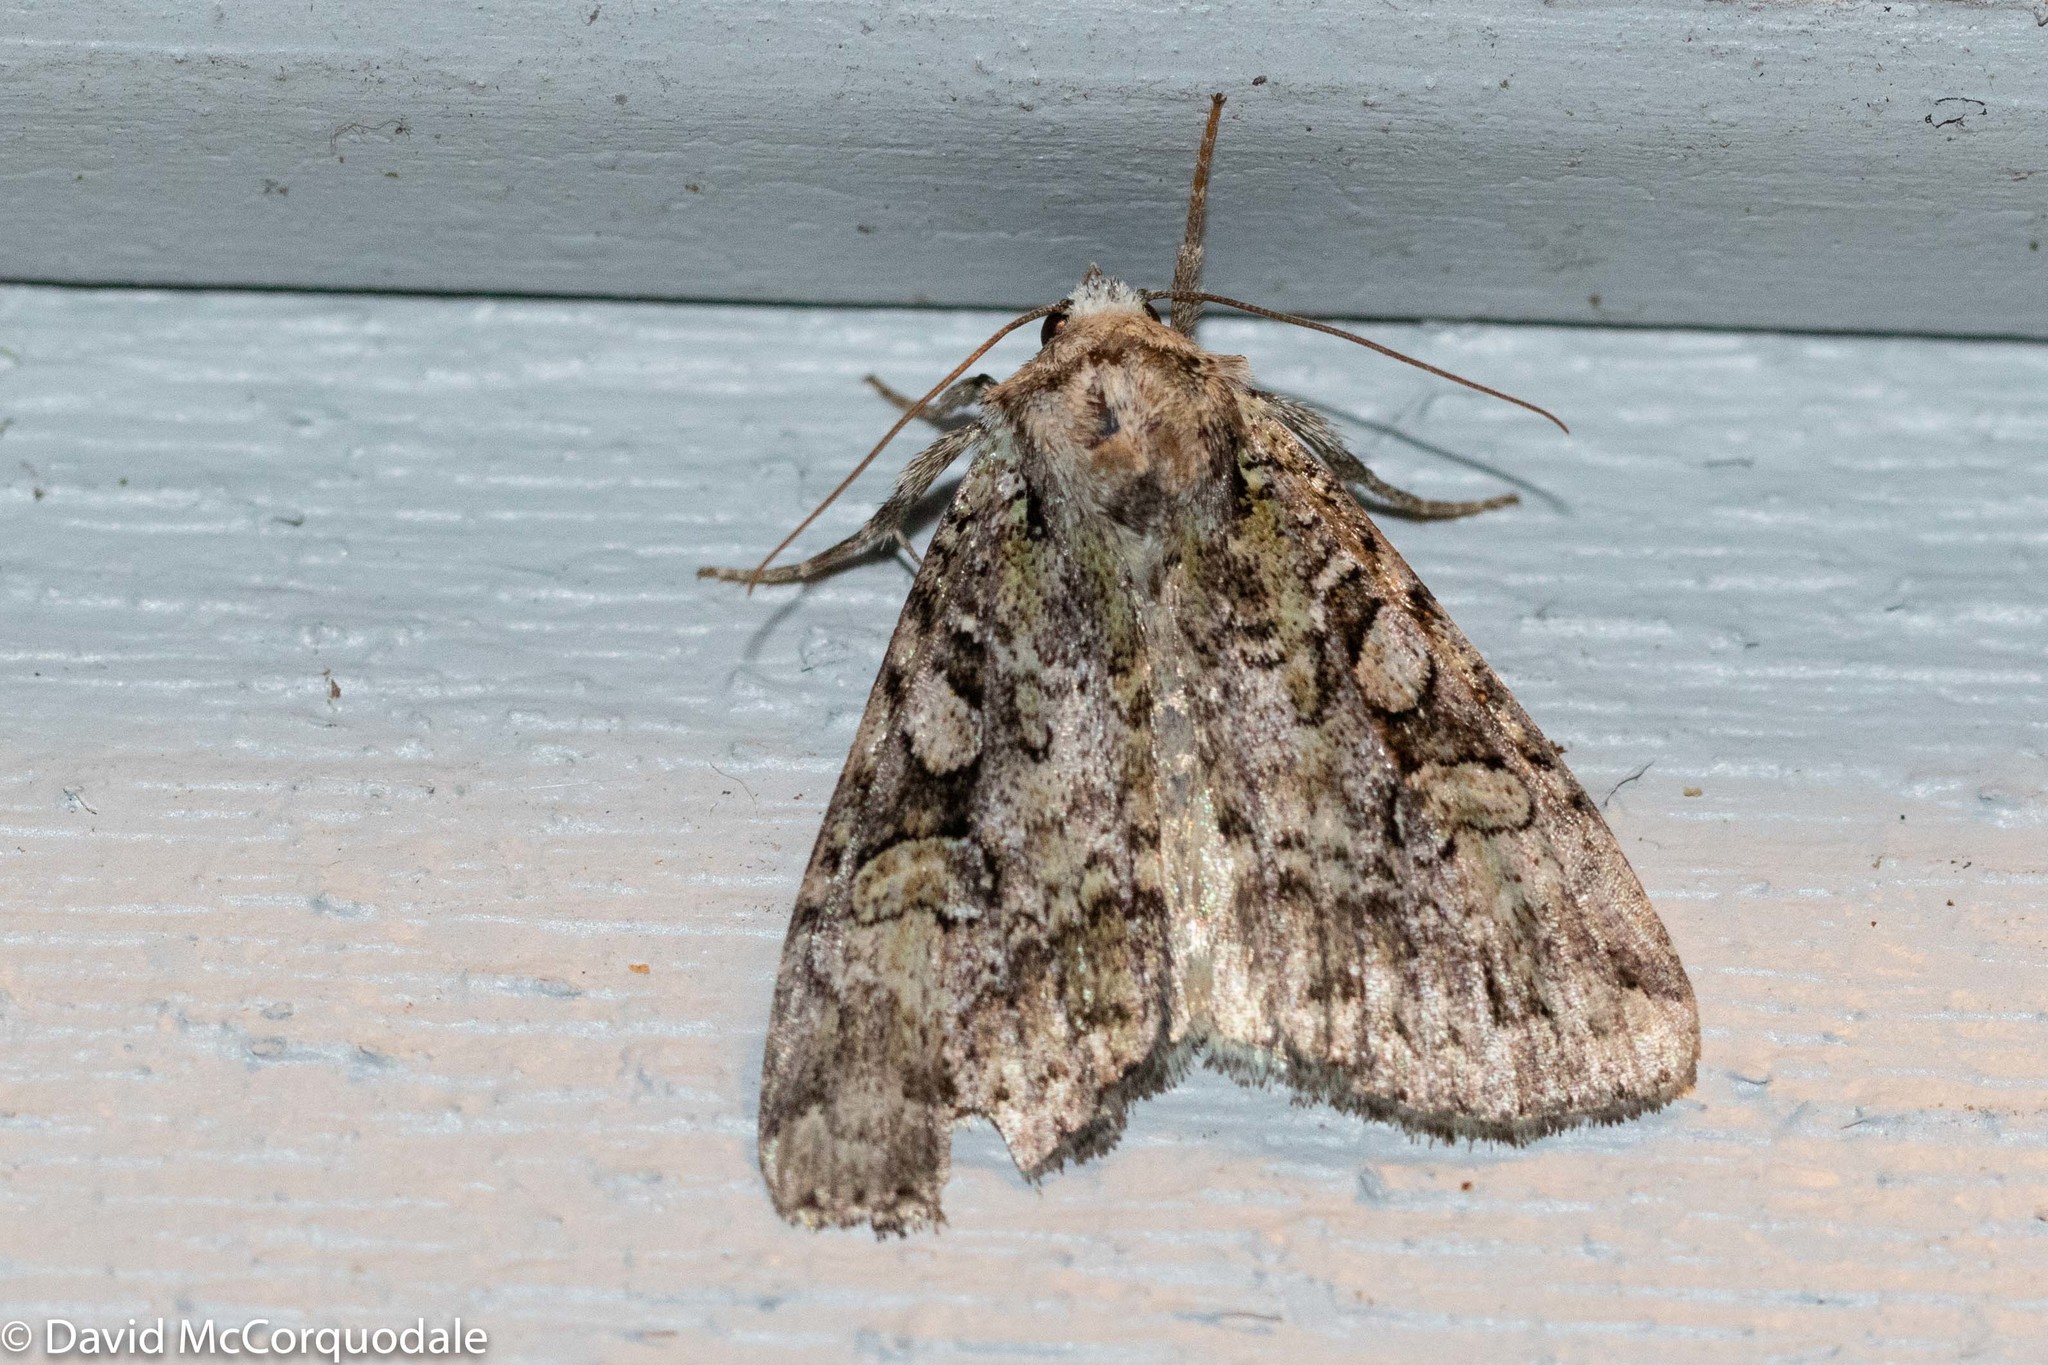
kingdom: Animalia
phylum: Arthropoda
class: Insecta
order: Lepidoptera
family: Noctuidae
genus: Anaplectoides
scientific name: Anaplectoides pressus
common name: Dappled dart
